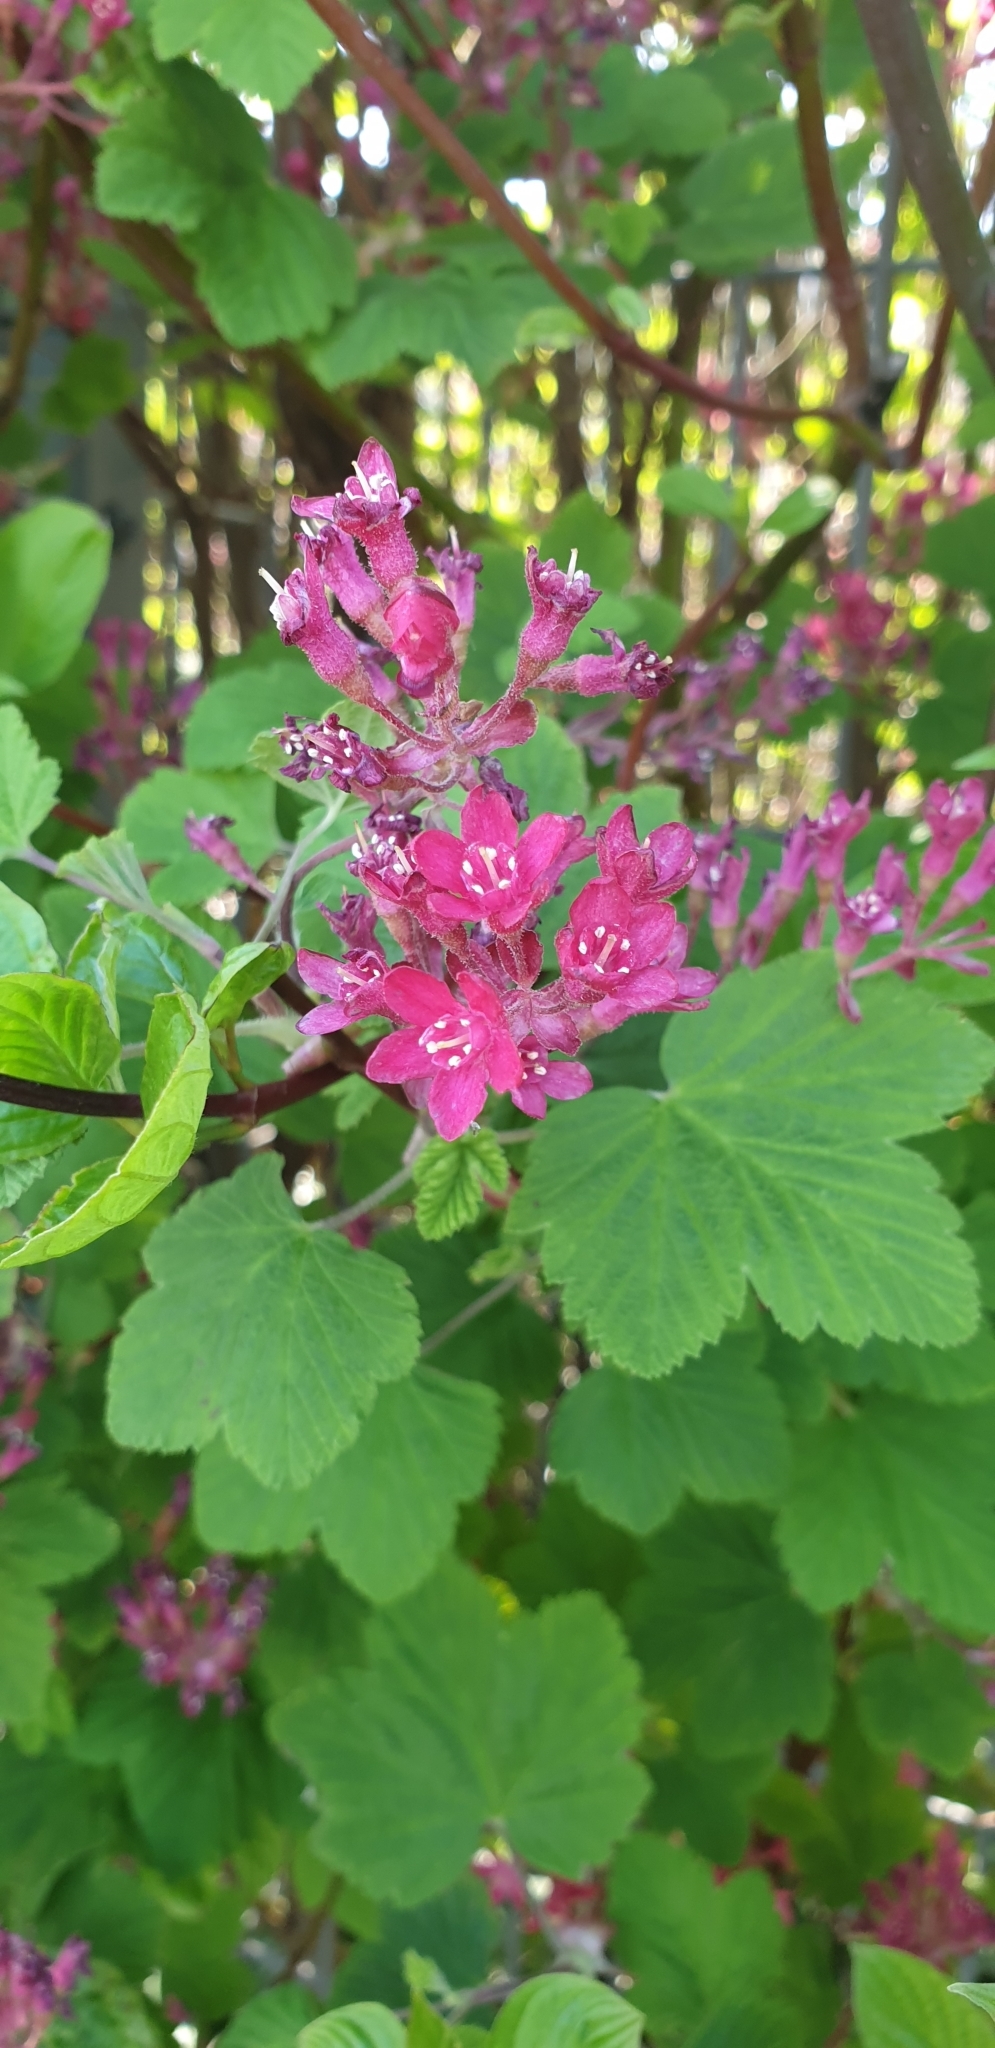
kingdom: Plantae
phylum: Tracheophyta
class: Magnoliopsida
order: Saxifragales
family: Grossulariaceae
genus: Ribes
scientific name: Ribes sanguineum
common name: Flowering currant
